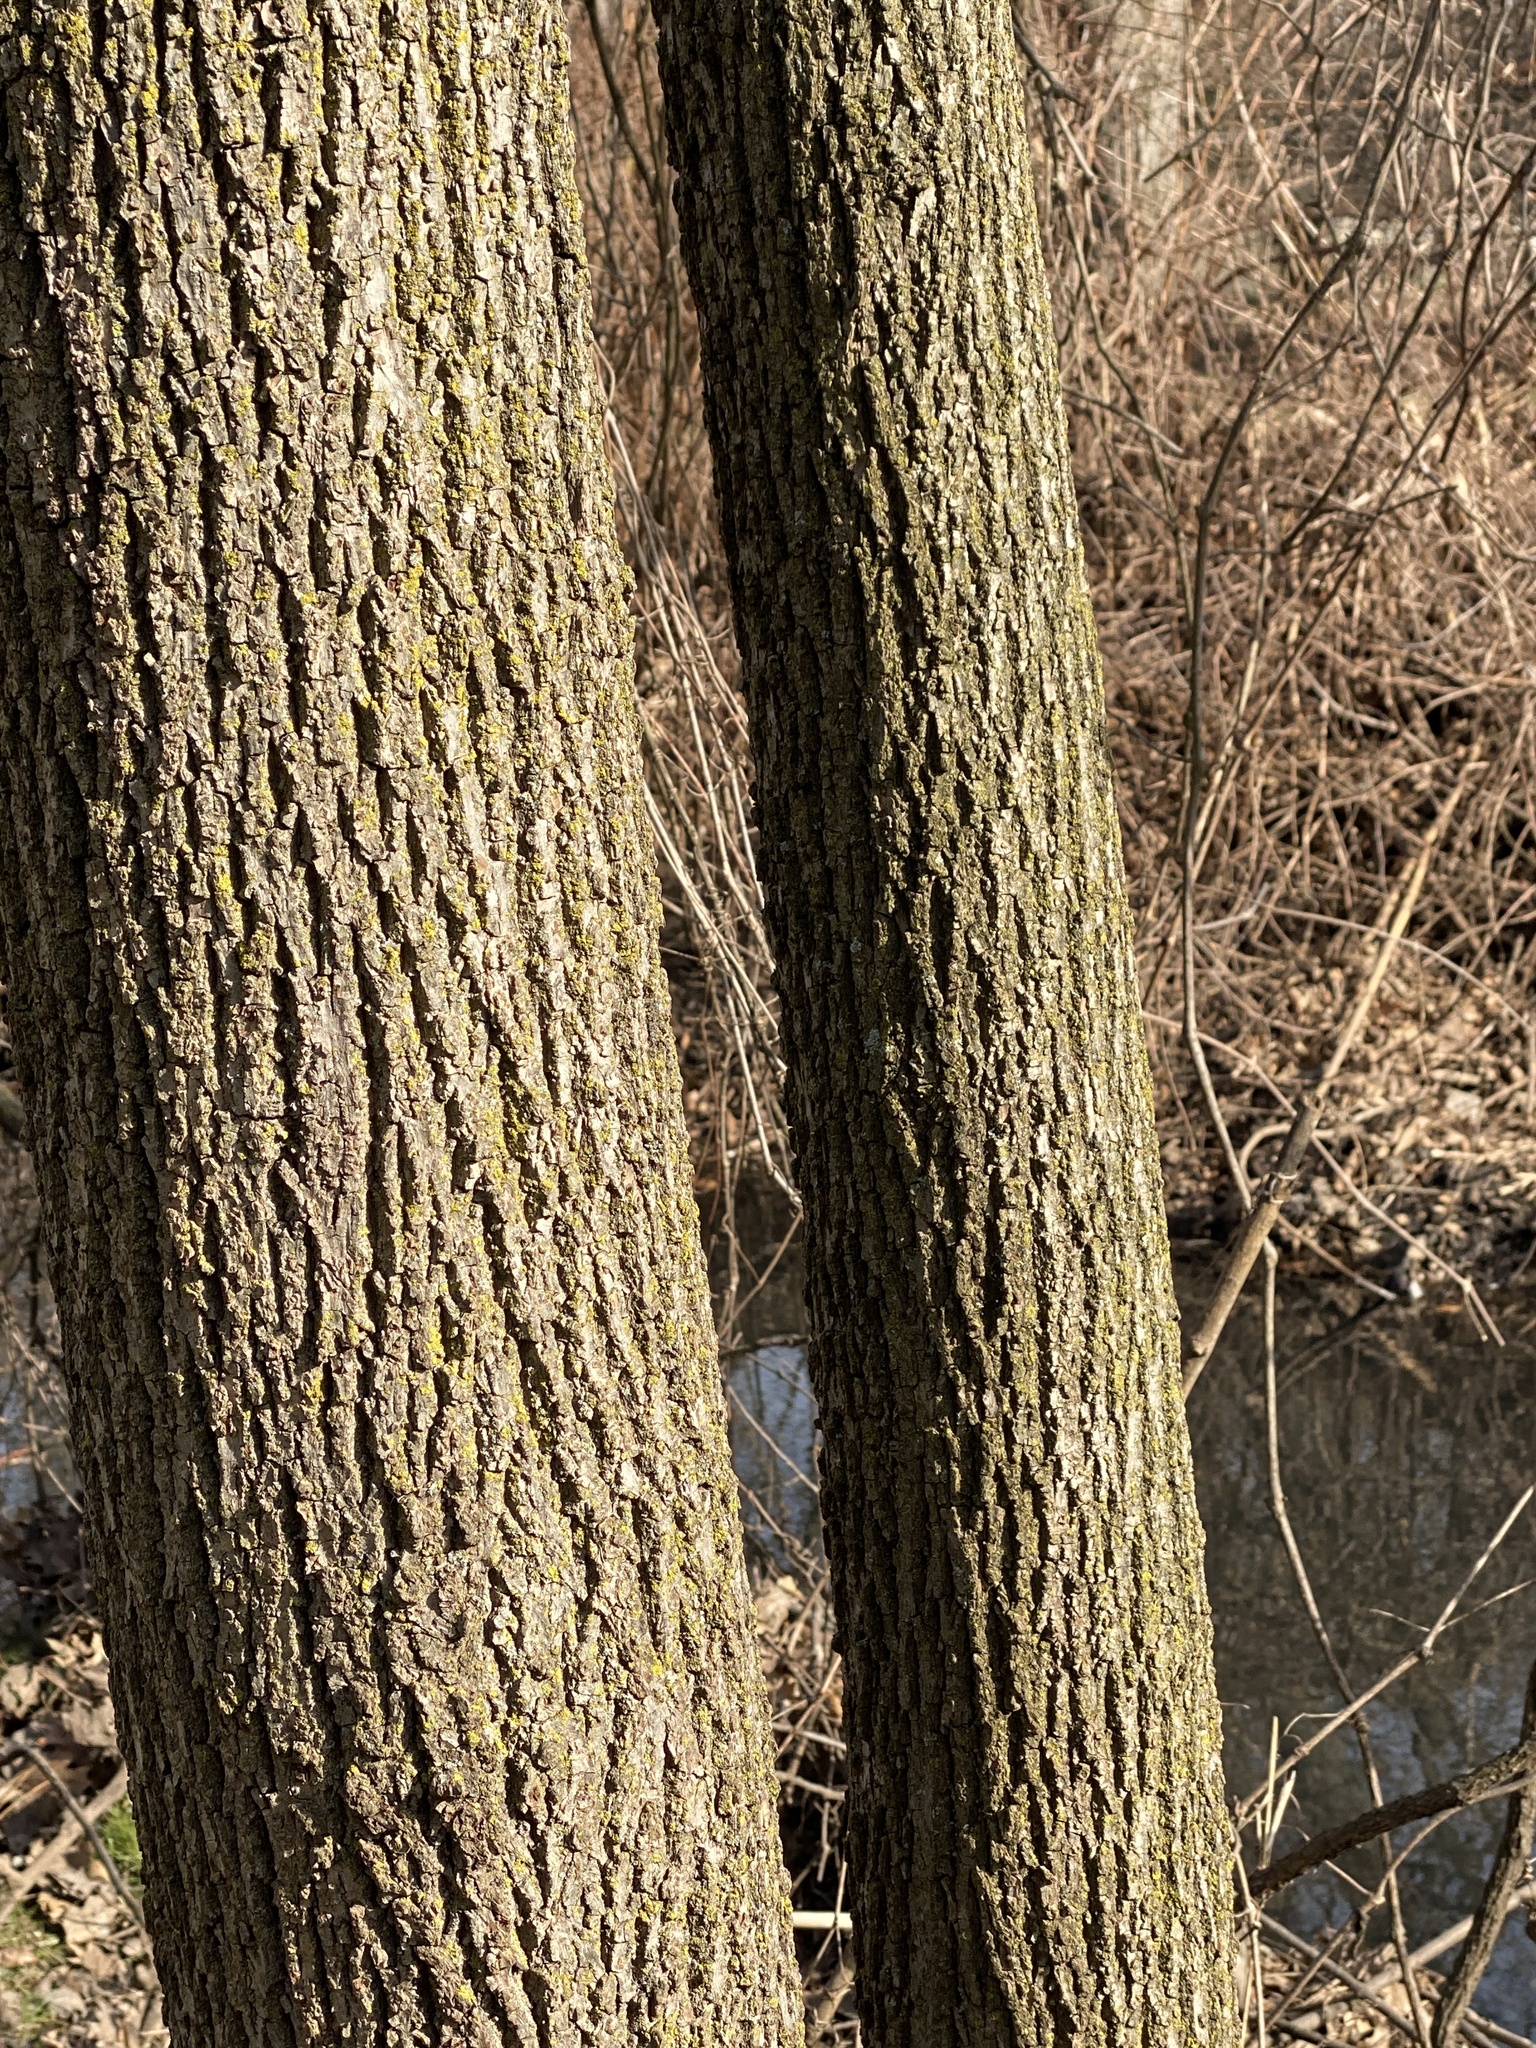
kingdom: Plantae
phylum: Tracheophyta
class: Magnoliopsida
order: Fagales
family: Juglandaceae
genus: Juglans
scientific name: Juglans nigra
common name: Black walnut
